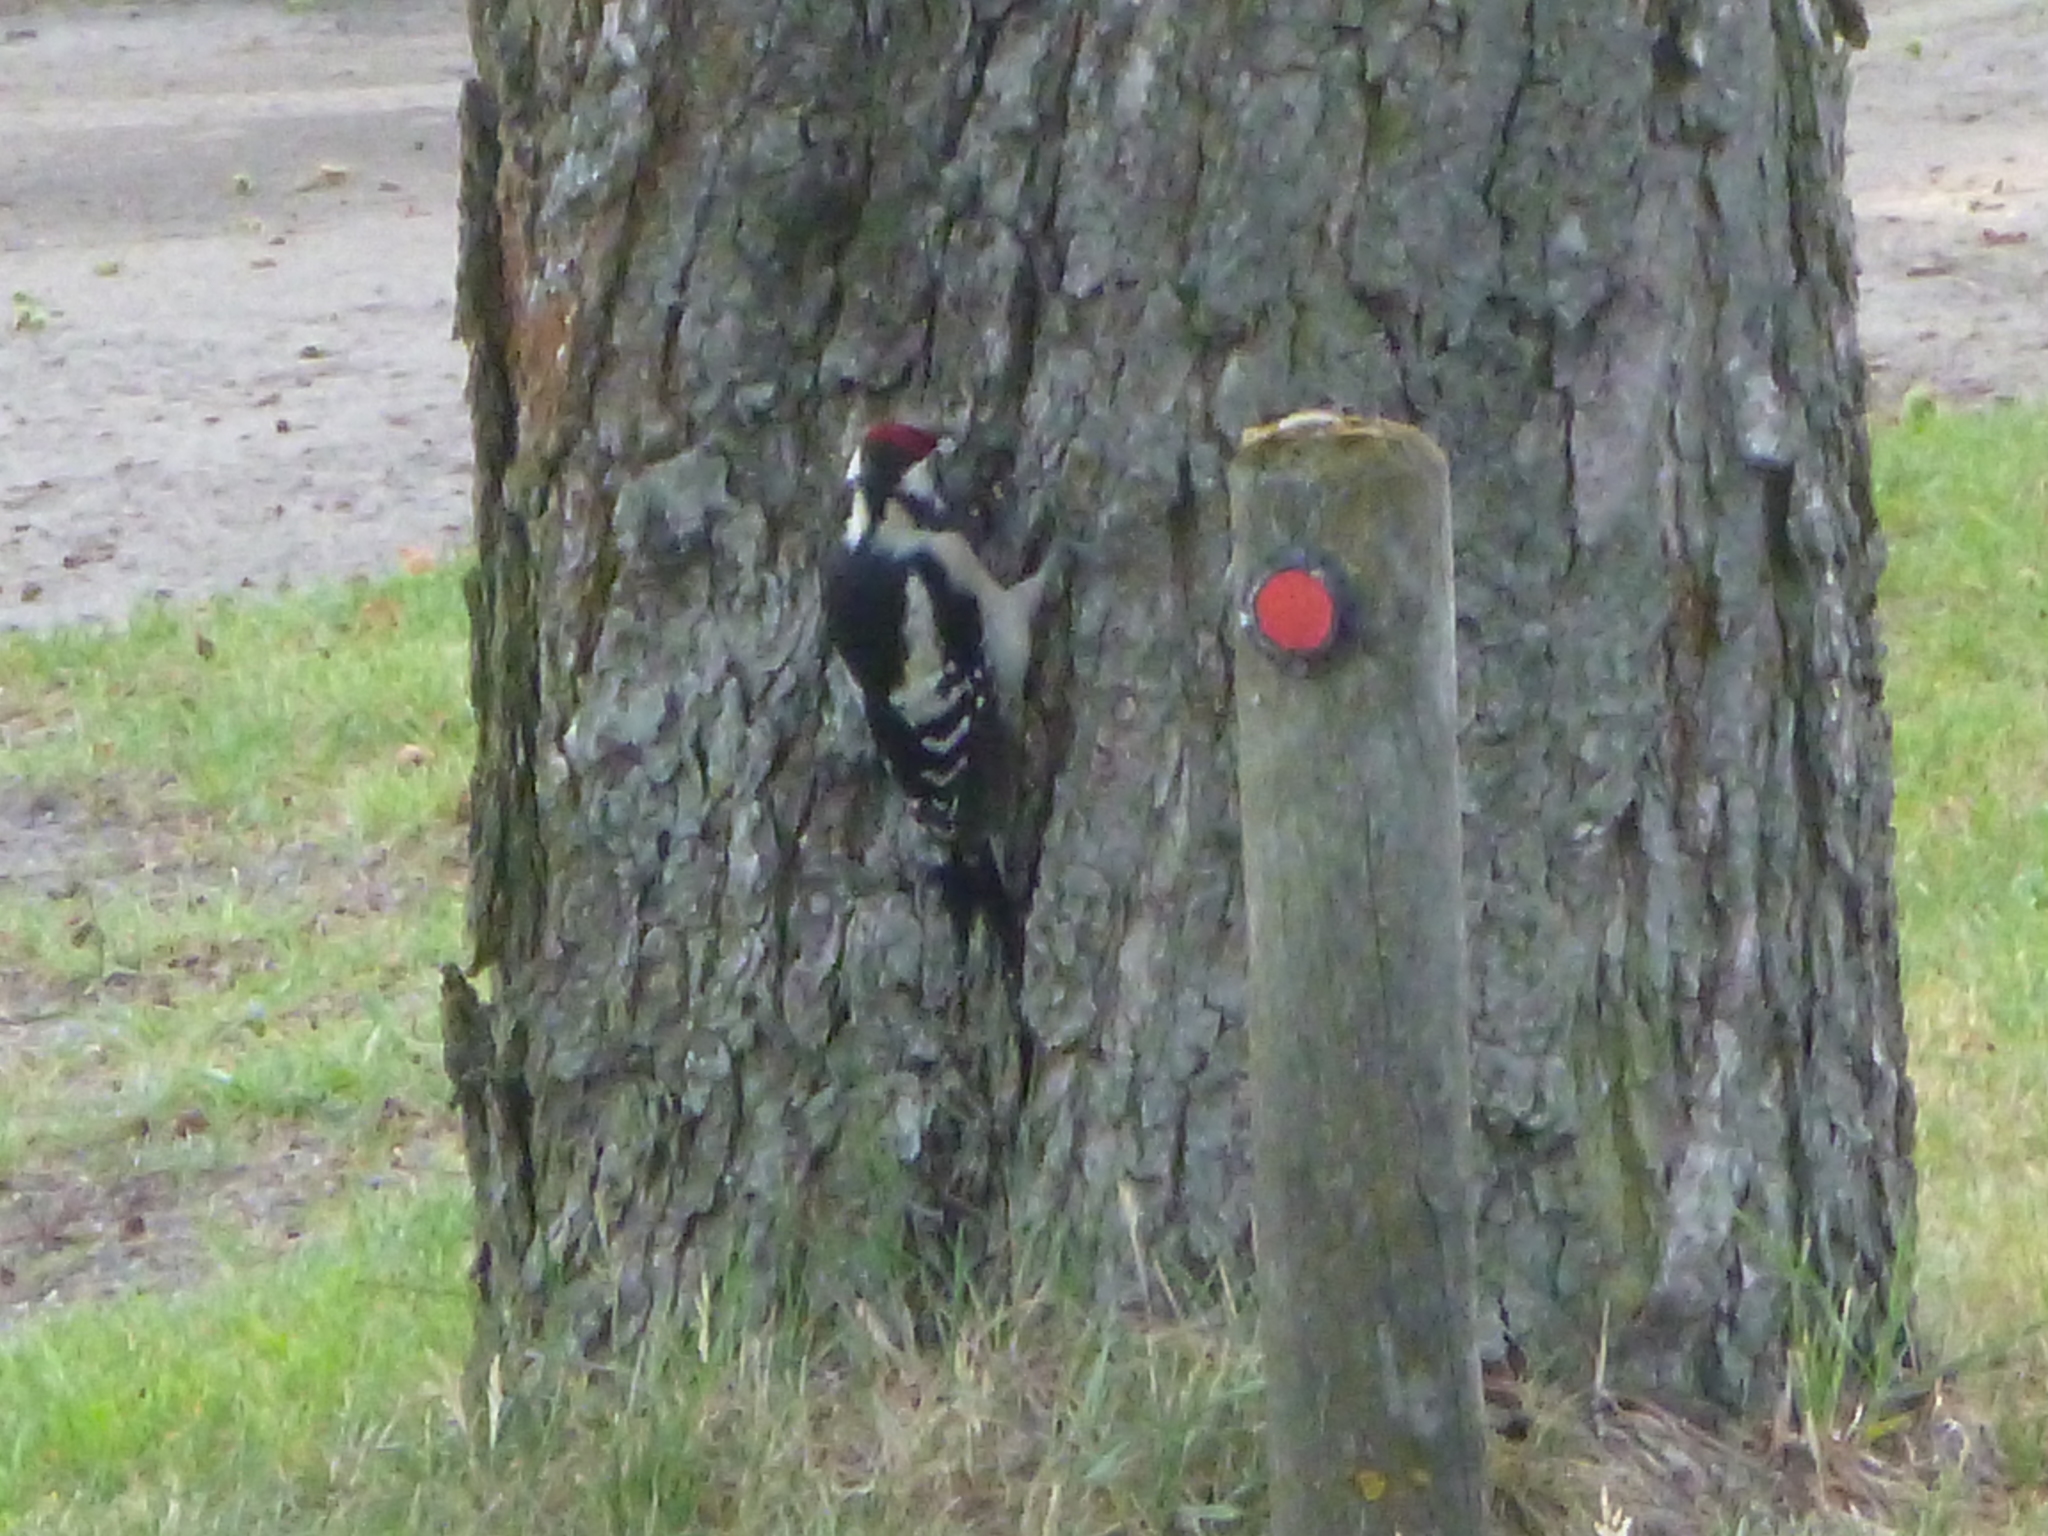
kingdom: Animalia
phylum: Chordata
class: Aves
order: Piciformes
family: Picidae
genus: Dendrocopos
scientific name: Dendrocopos major
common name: Great spotted woodpecker
